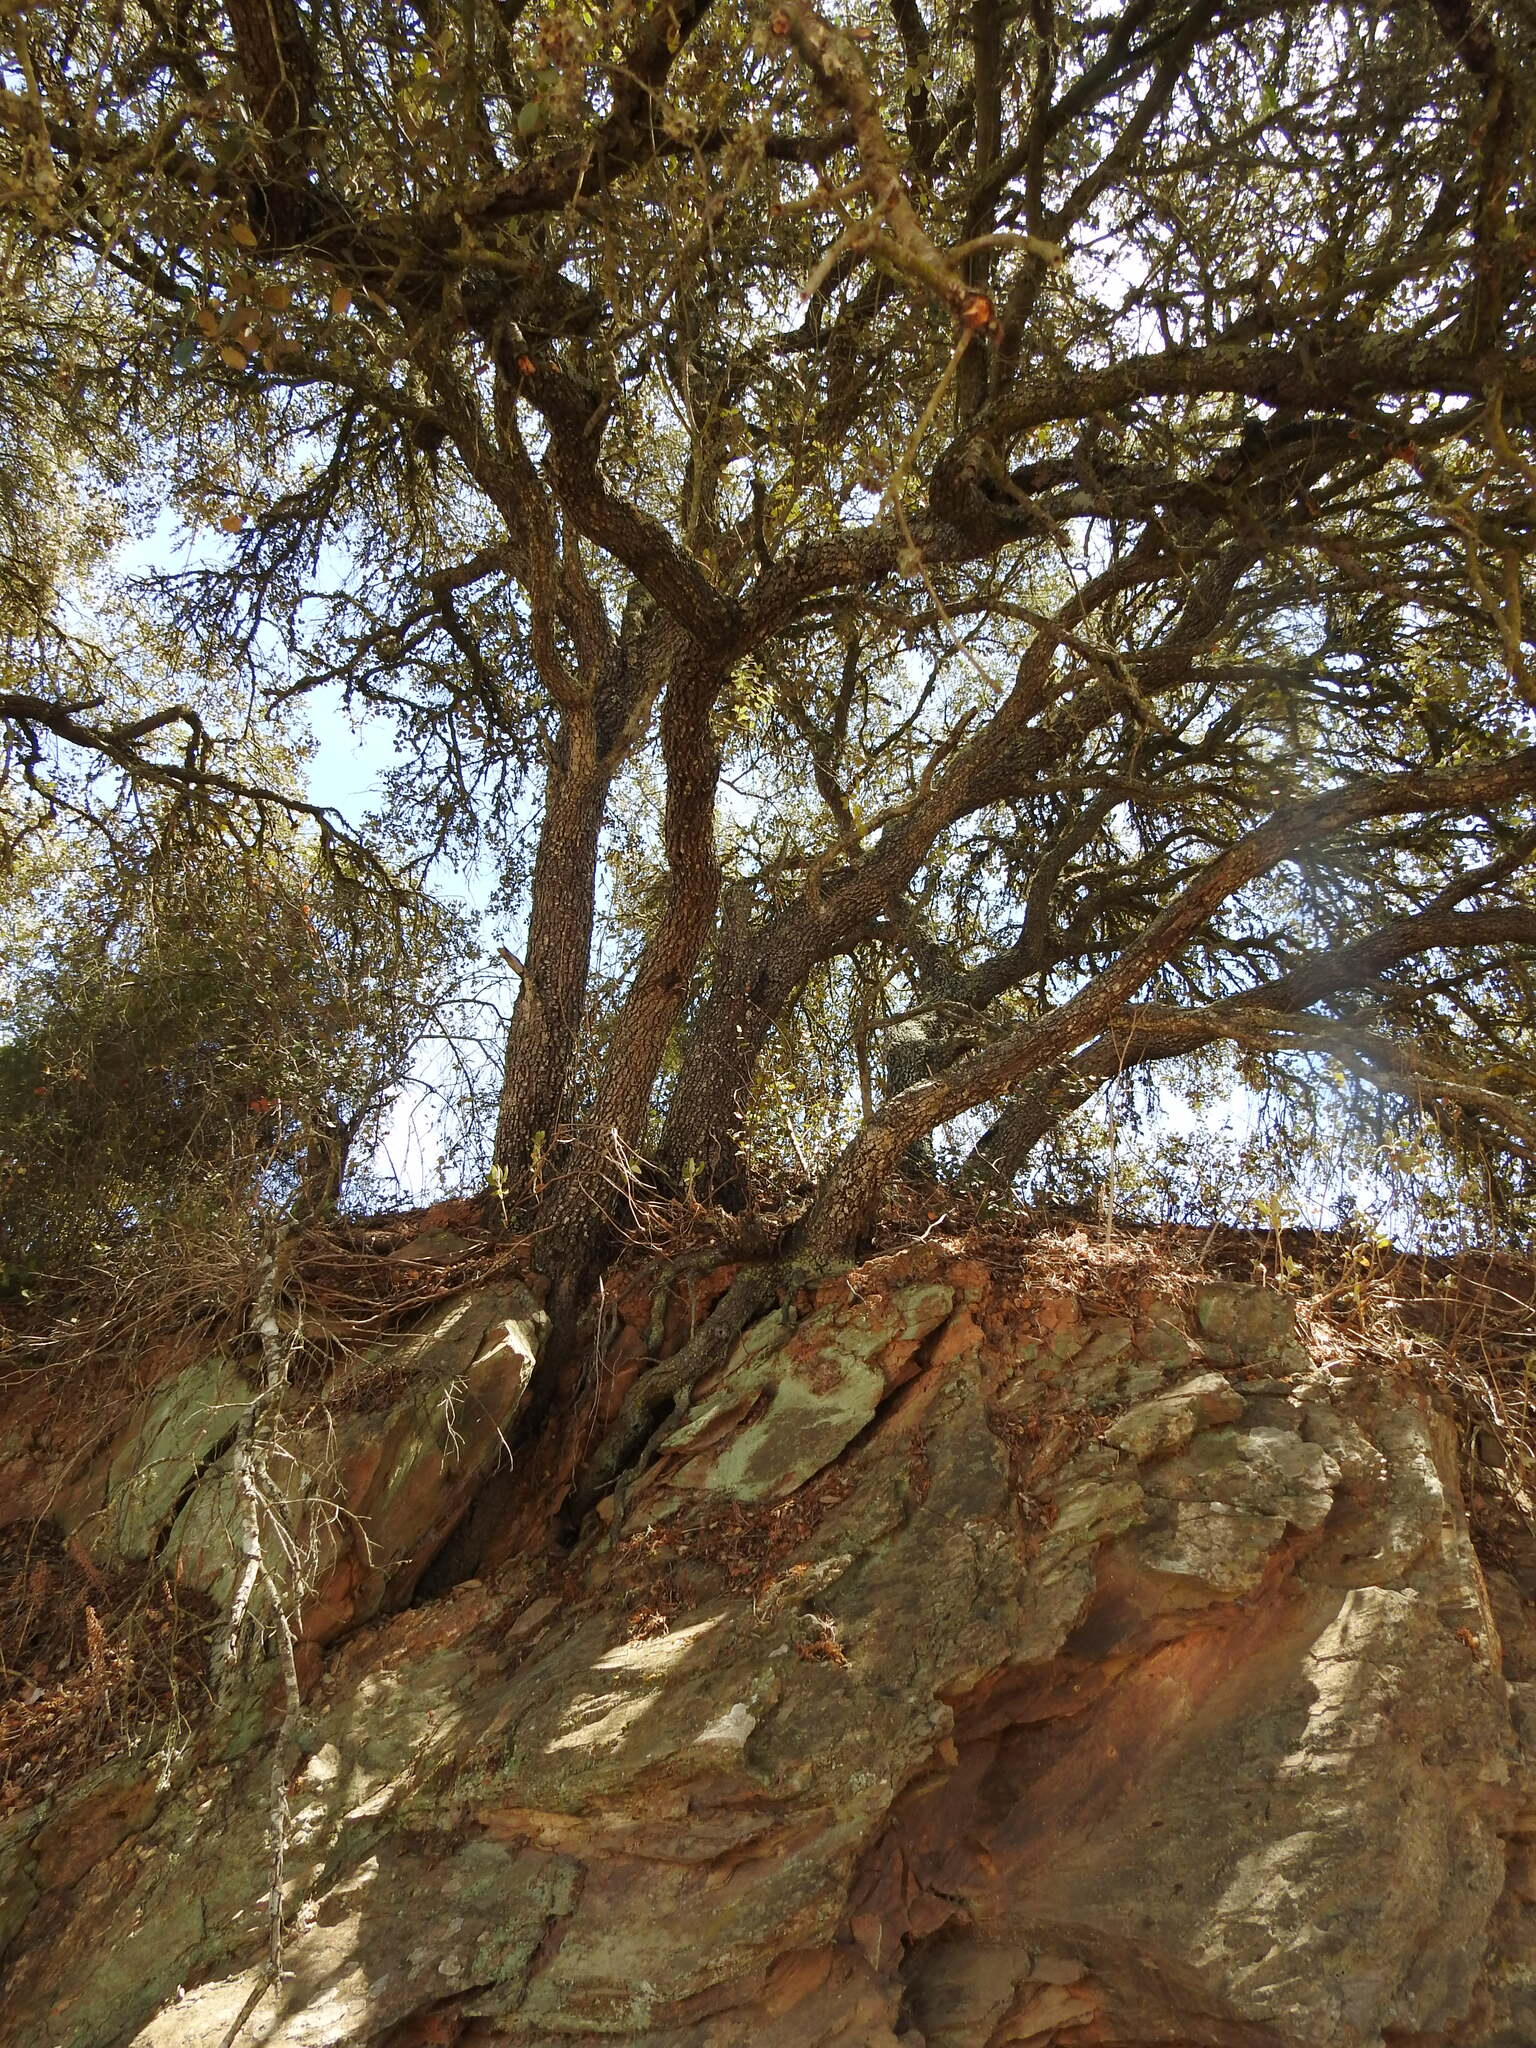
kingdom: Plantae
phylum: Tracheophyta
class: Magnoliopsida
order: Fagales
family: Fagaceae
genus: Quercus
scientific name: Quercus rotundifolia
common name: Holm oak
